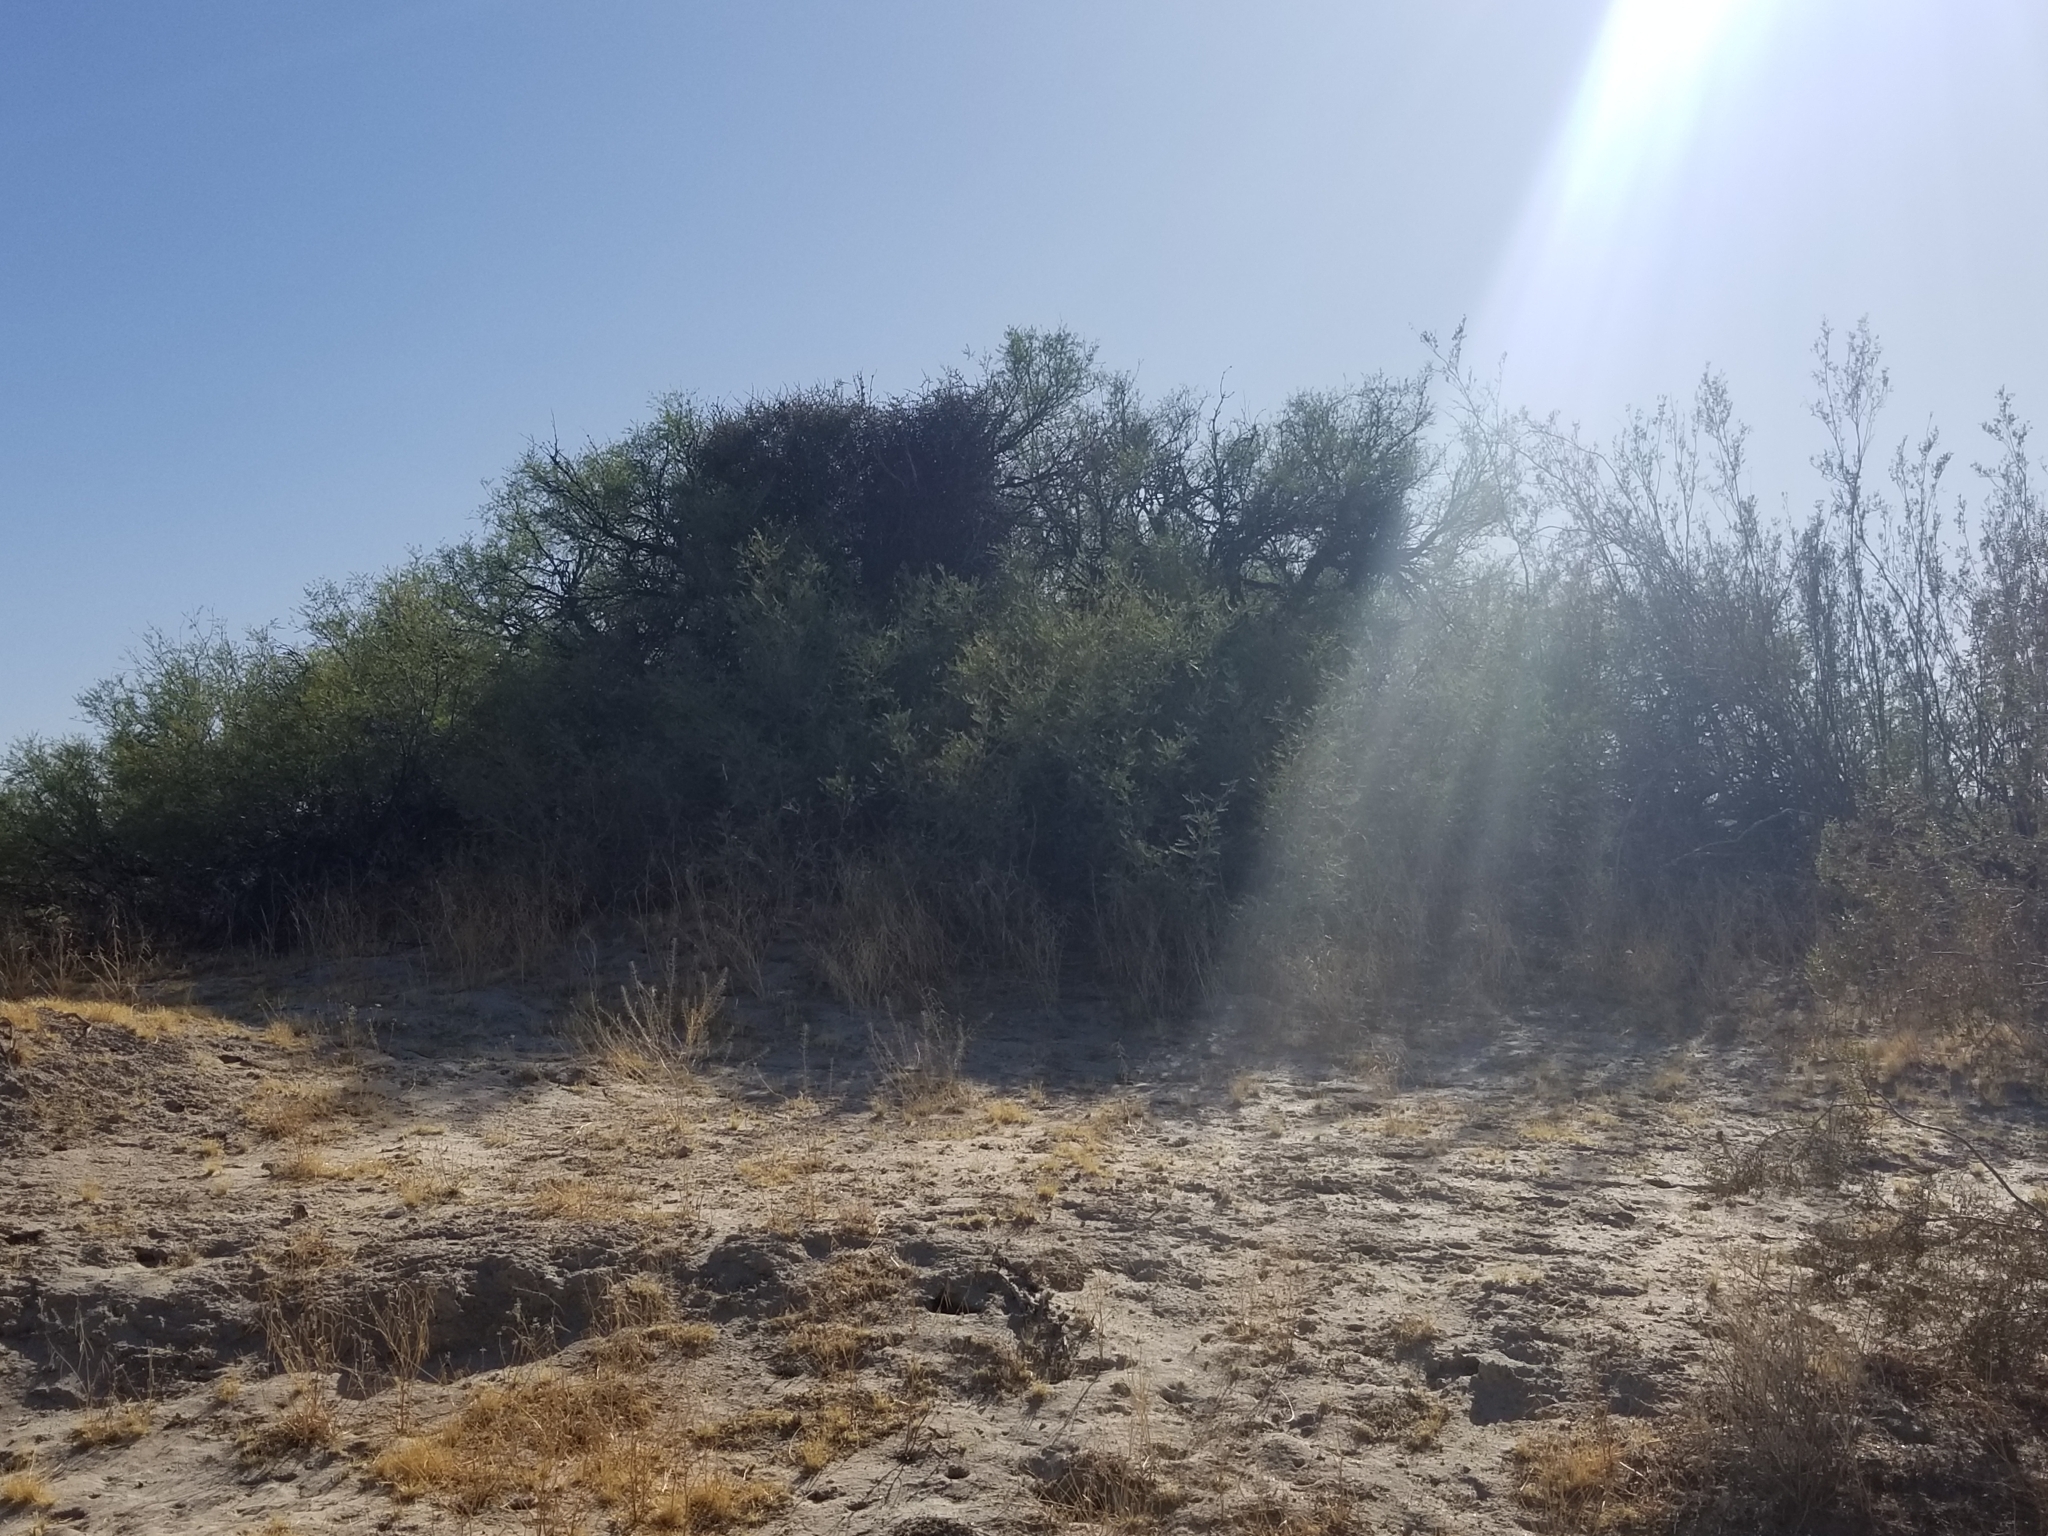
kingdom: Plantae
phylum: Tracheophyta
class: Magnoliopsida
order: Fabales
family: Fabaceae
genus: Prosopis
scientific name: Prosopis pubescens
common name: Screw-bean
